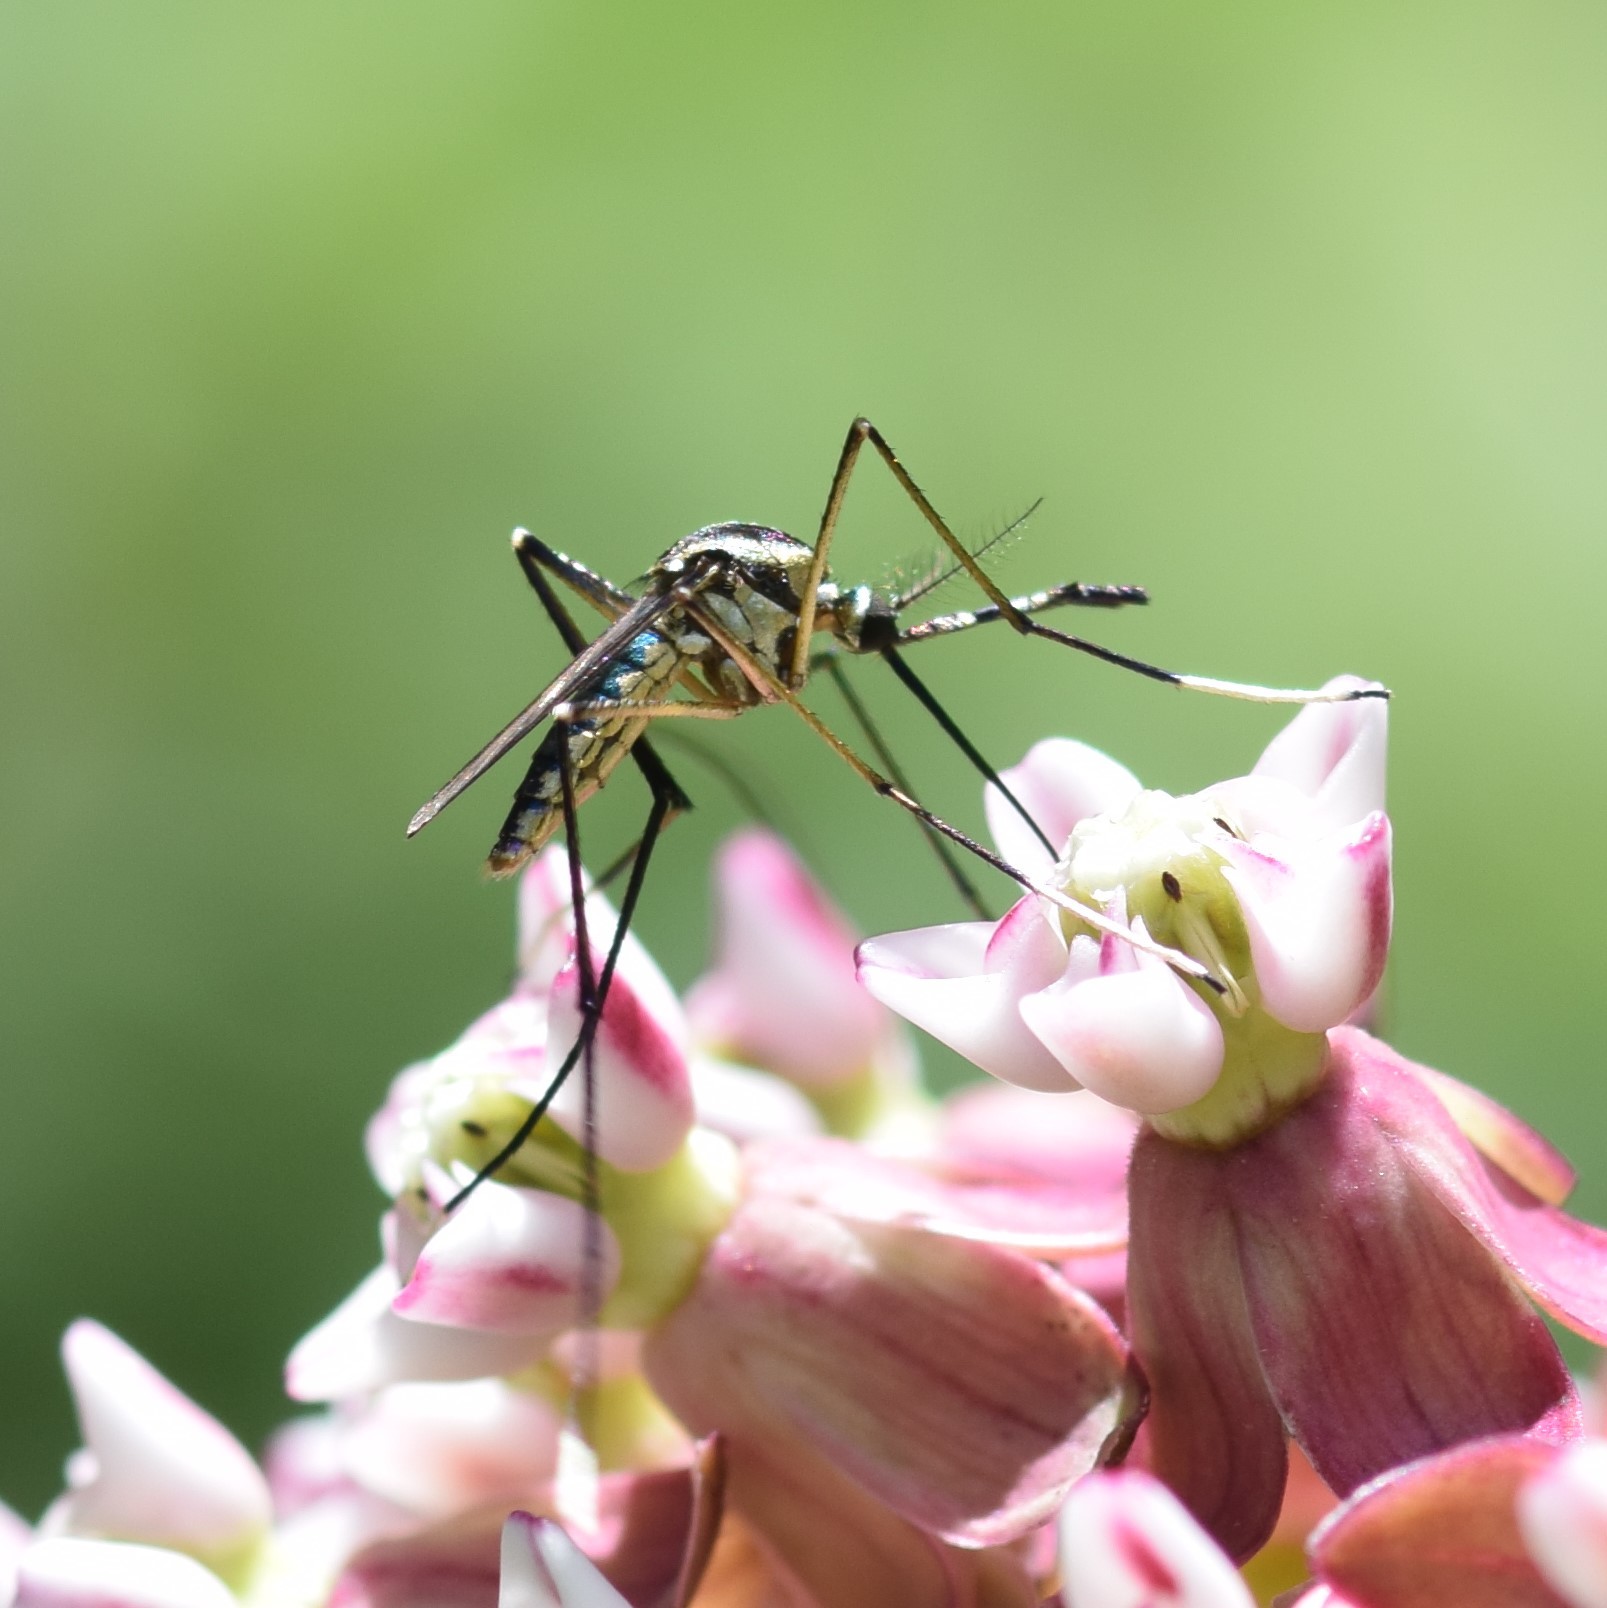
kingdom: Animalia
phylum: Arthropoda
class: Insecta
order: Diptera
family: Culicidae
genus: Toxorhynchites
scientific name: Toxorhynchites rutilus
